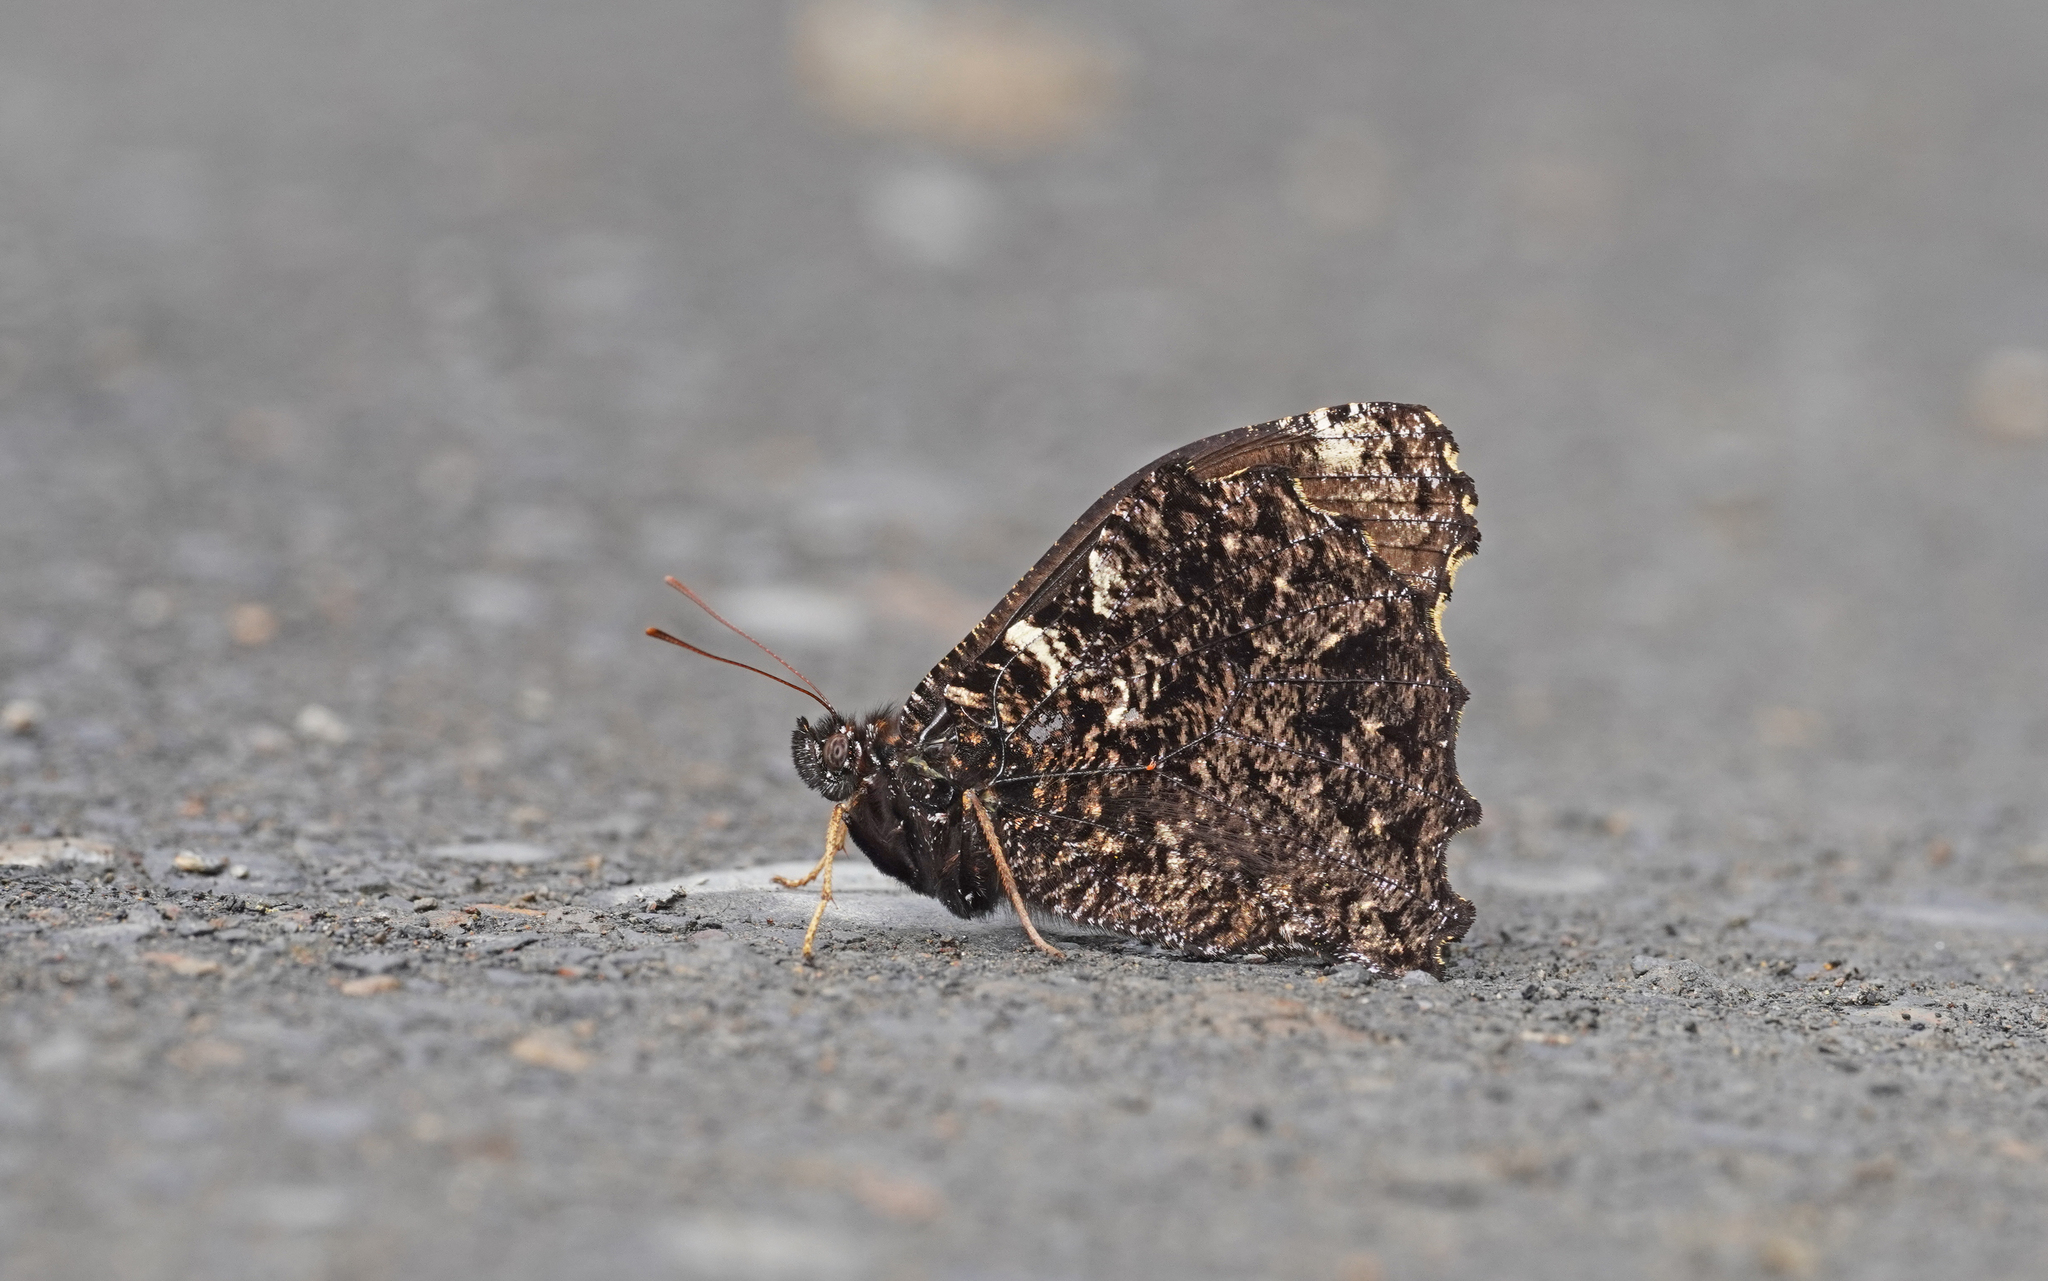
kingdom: Animalia
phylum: Arthropoda
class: Insecta
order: Lepidoptera
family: Nymphalidae
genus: Steroma
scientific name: Steroma superba
